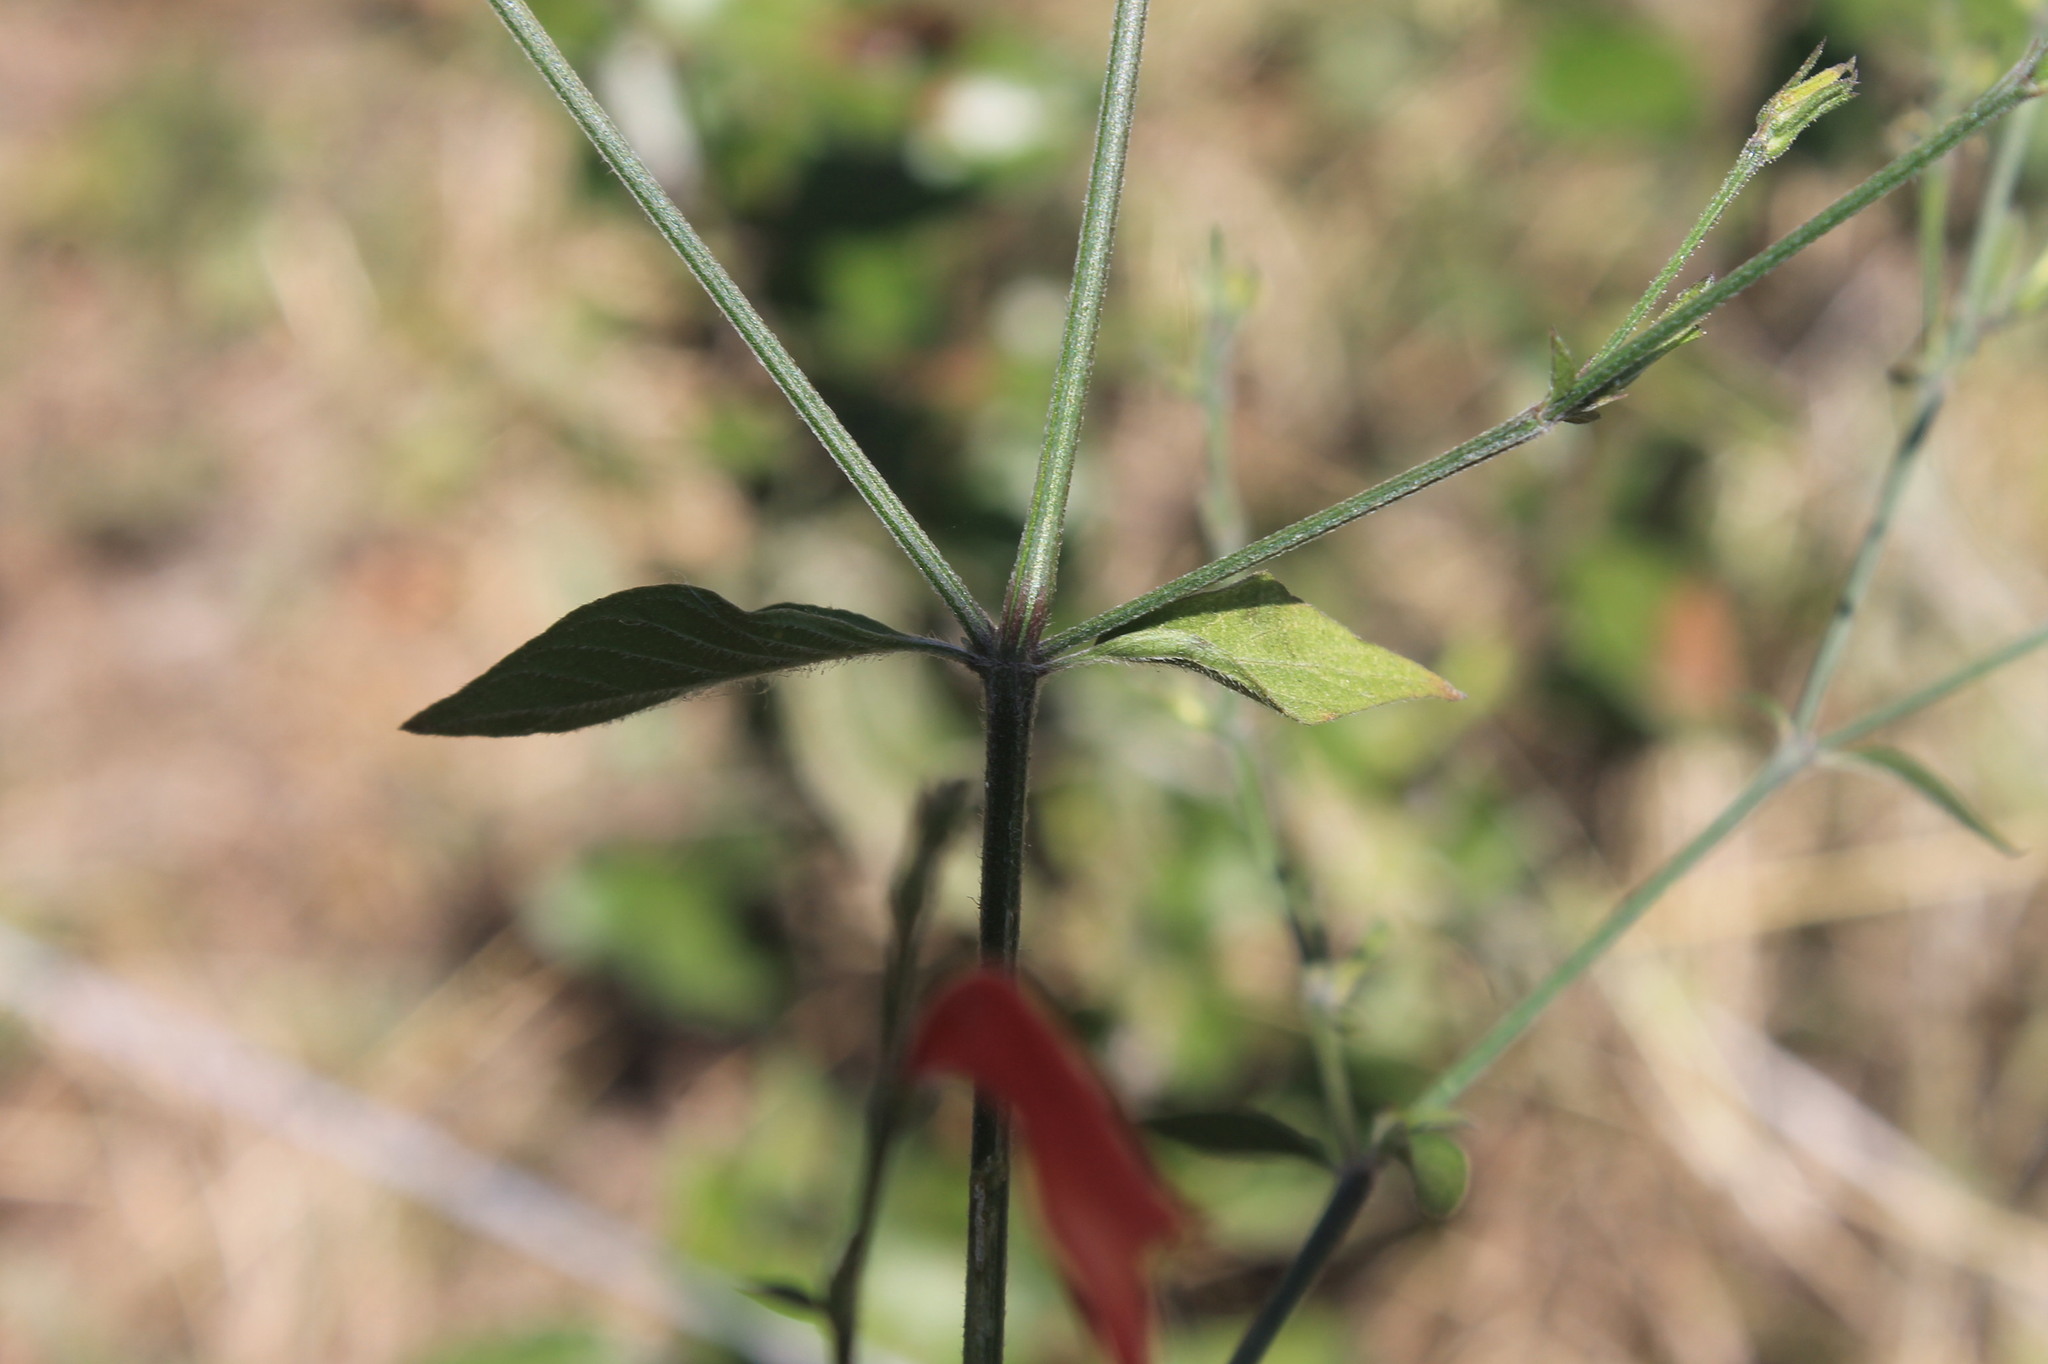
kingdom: Plantae
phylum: Tracheophyta
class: Magnoliopsida
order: Lamiales
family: Acanthaceae
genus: Dicliptera
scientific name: Dicliptera sexangularis
